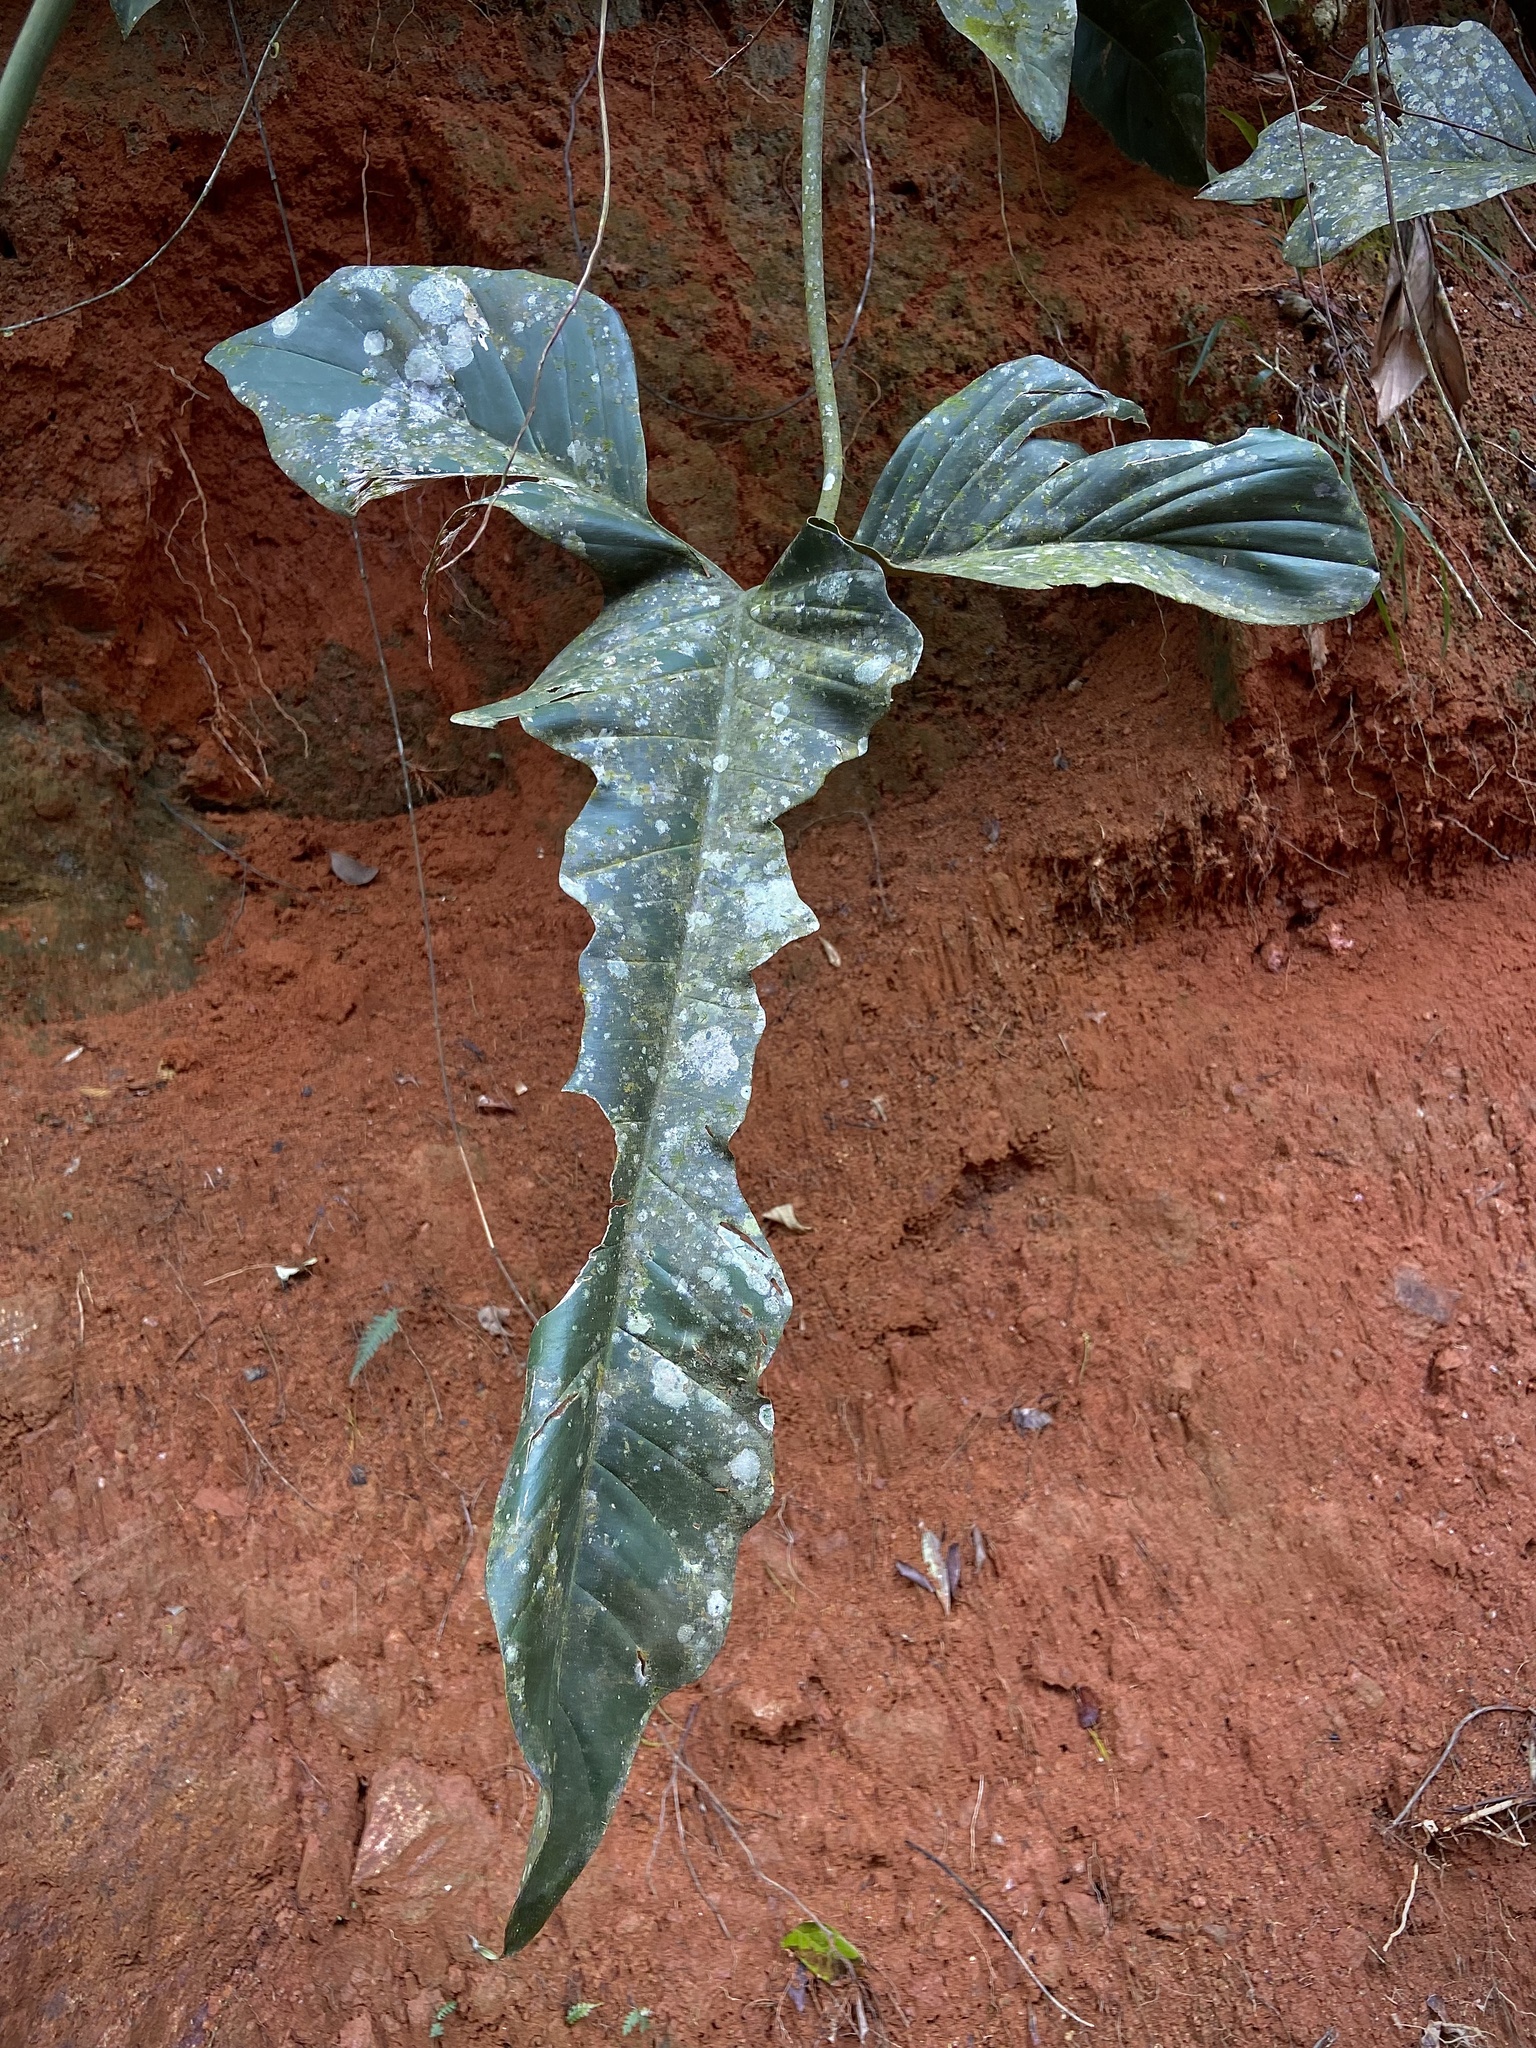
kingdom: Plantae
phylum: Tracheophyta
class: Liliopsida
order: Alismatales
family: Araceae
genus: Philodendron
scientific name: Philodendron longilobatum
